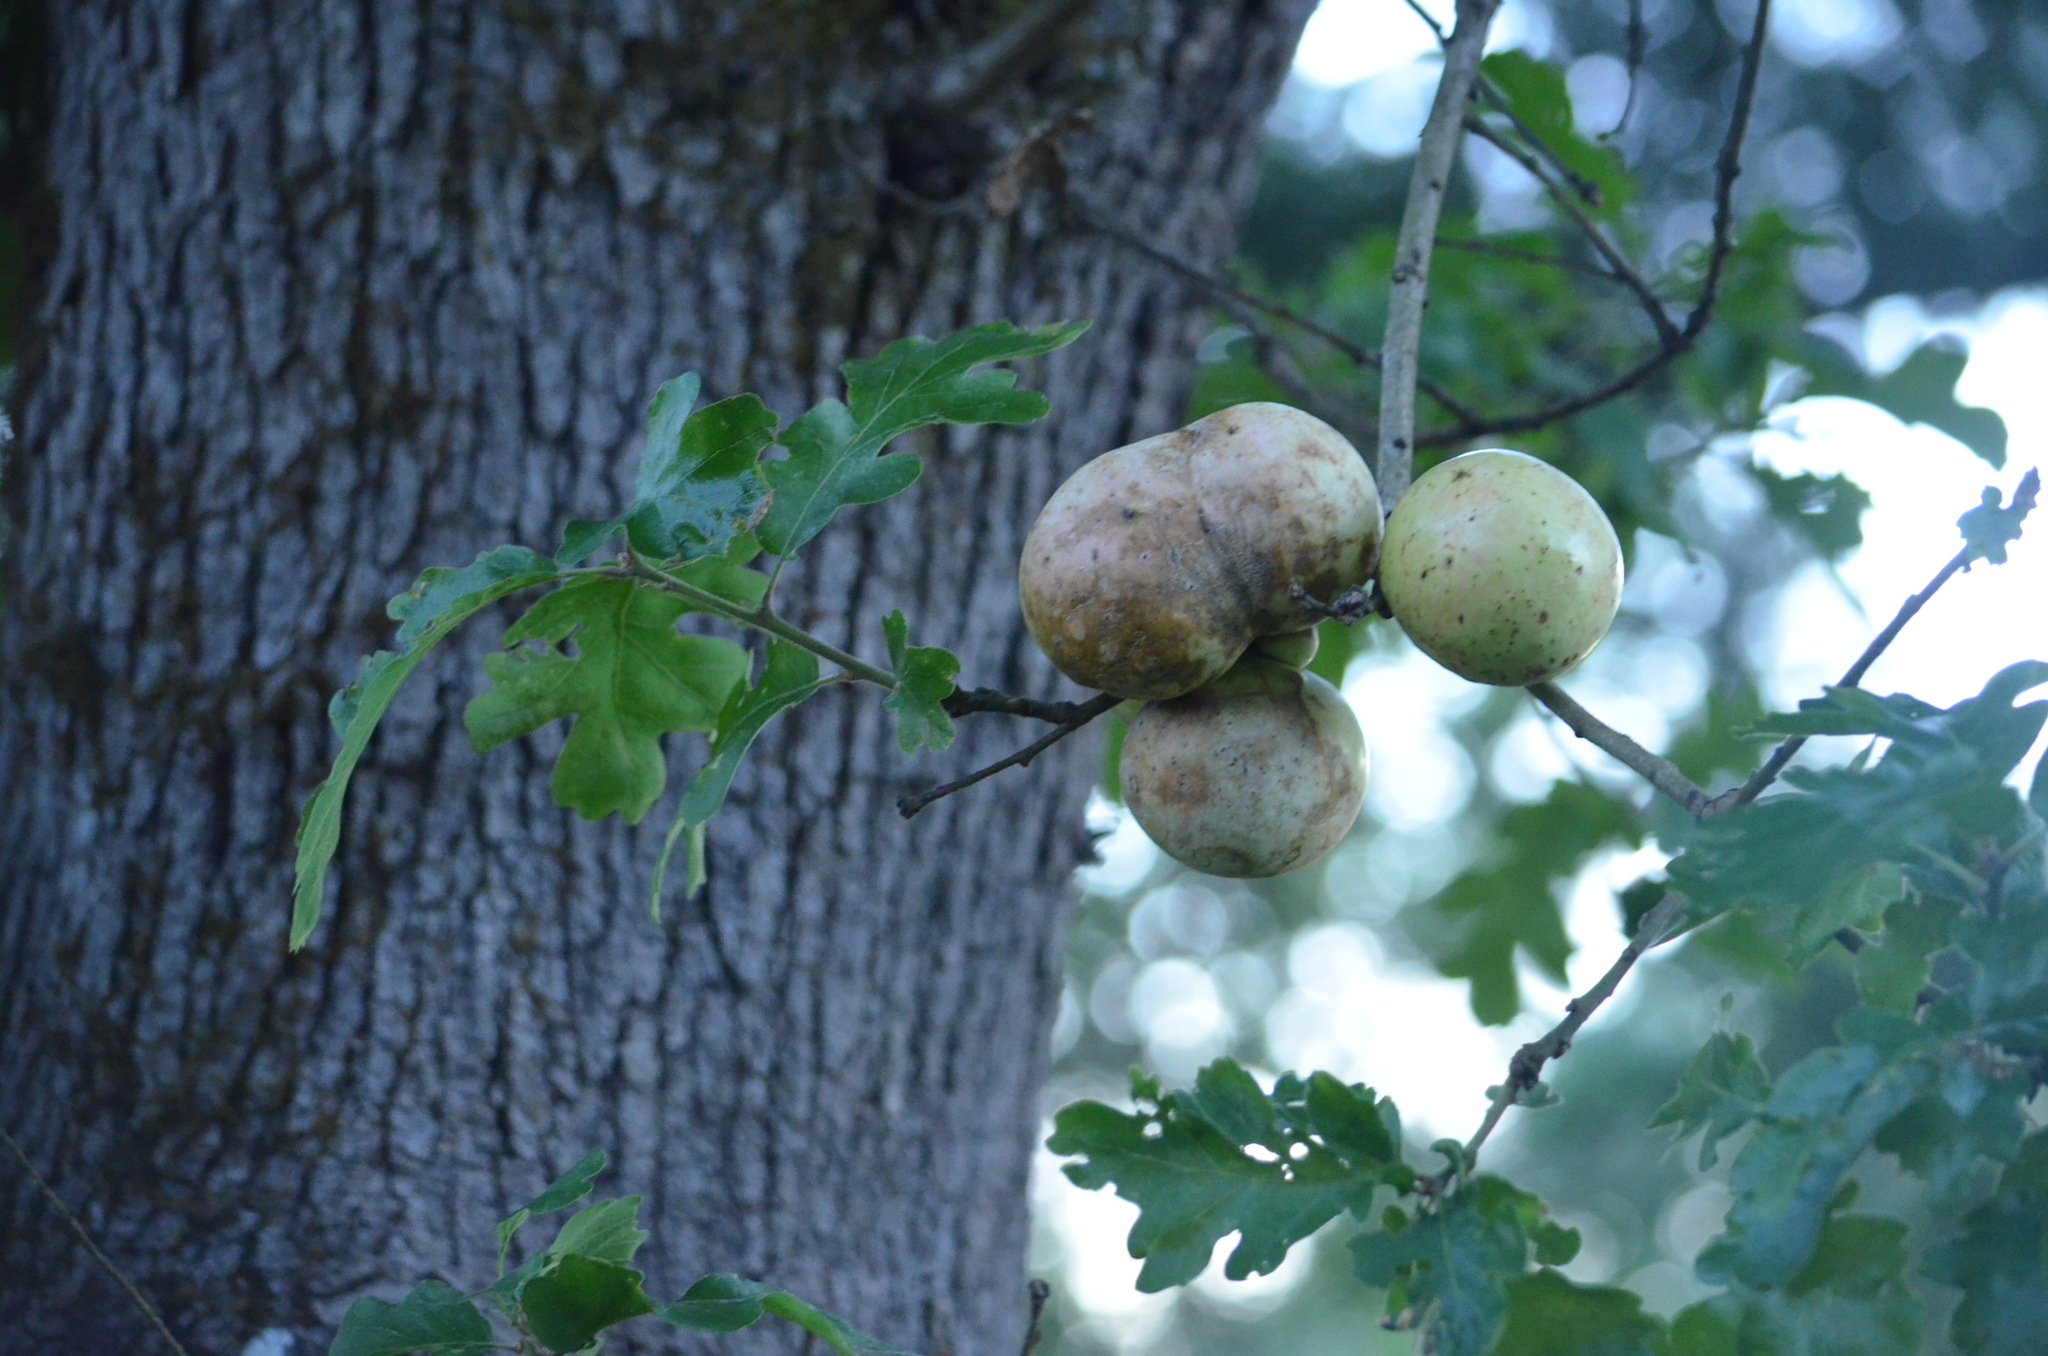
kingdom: Animalia
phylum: Arthropoda
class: Insecta
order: Hymenoptera
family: Cynipidae
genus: Andricus
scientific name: Andricus quercuscalifornicus
